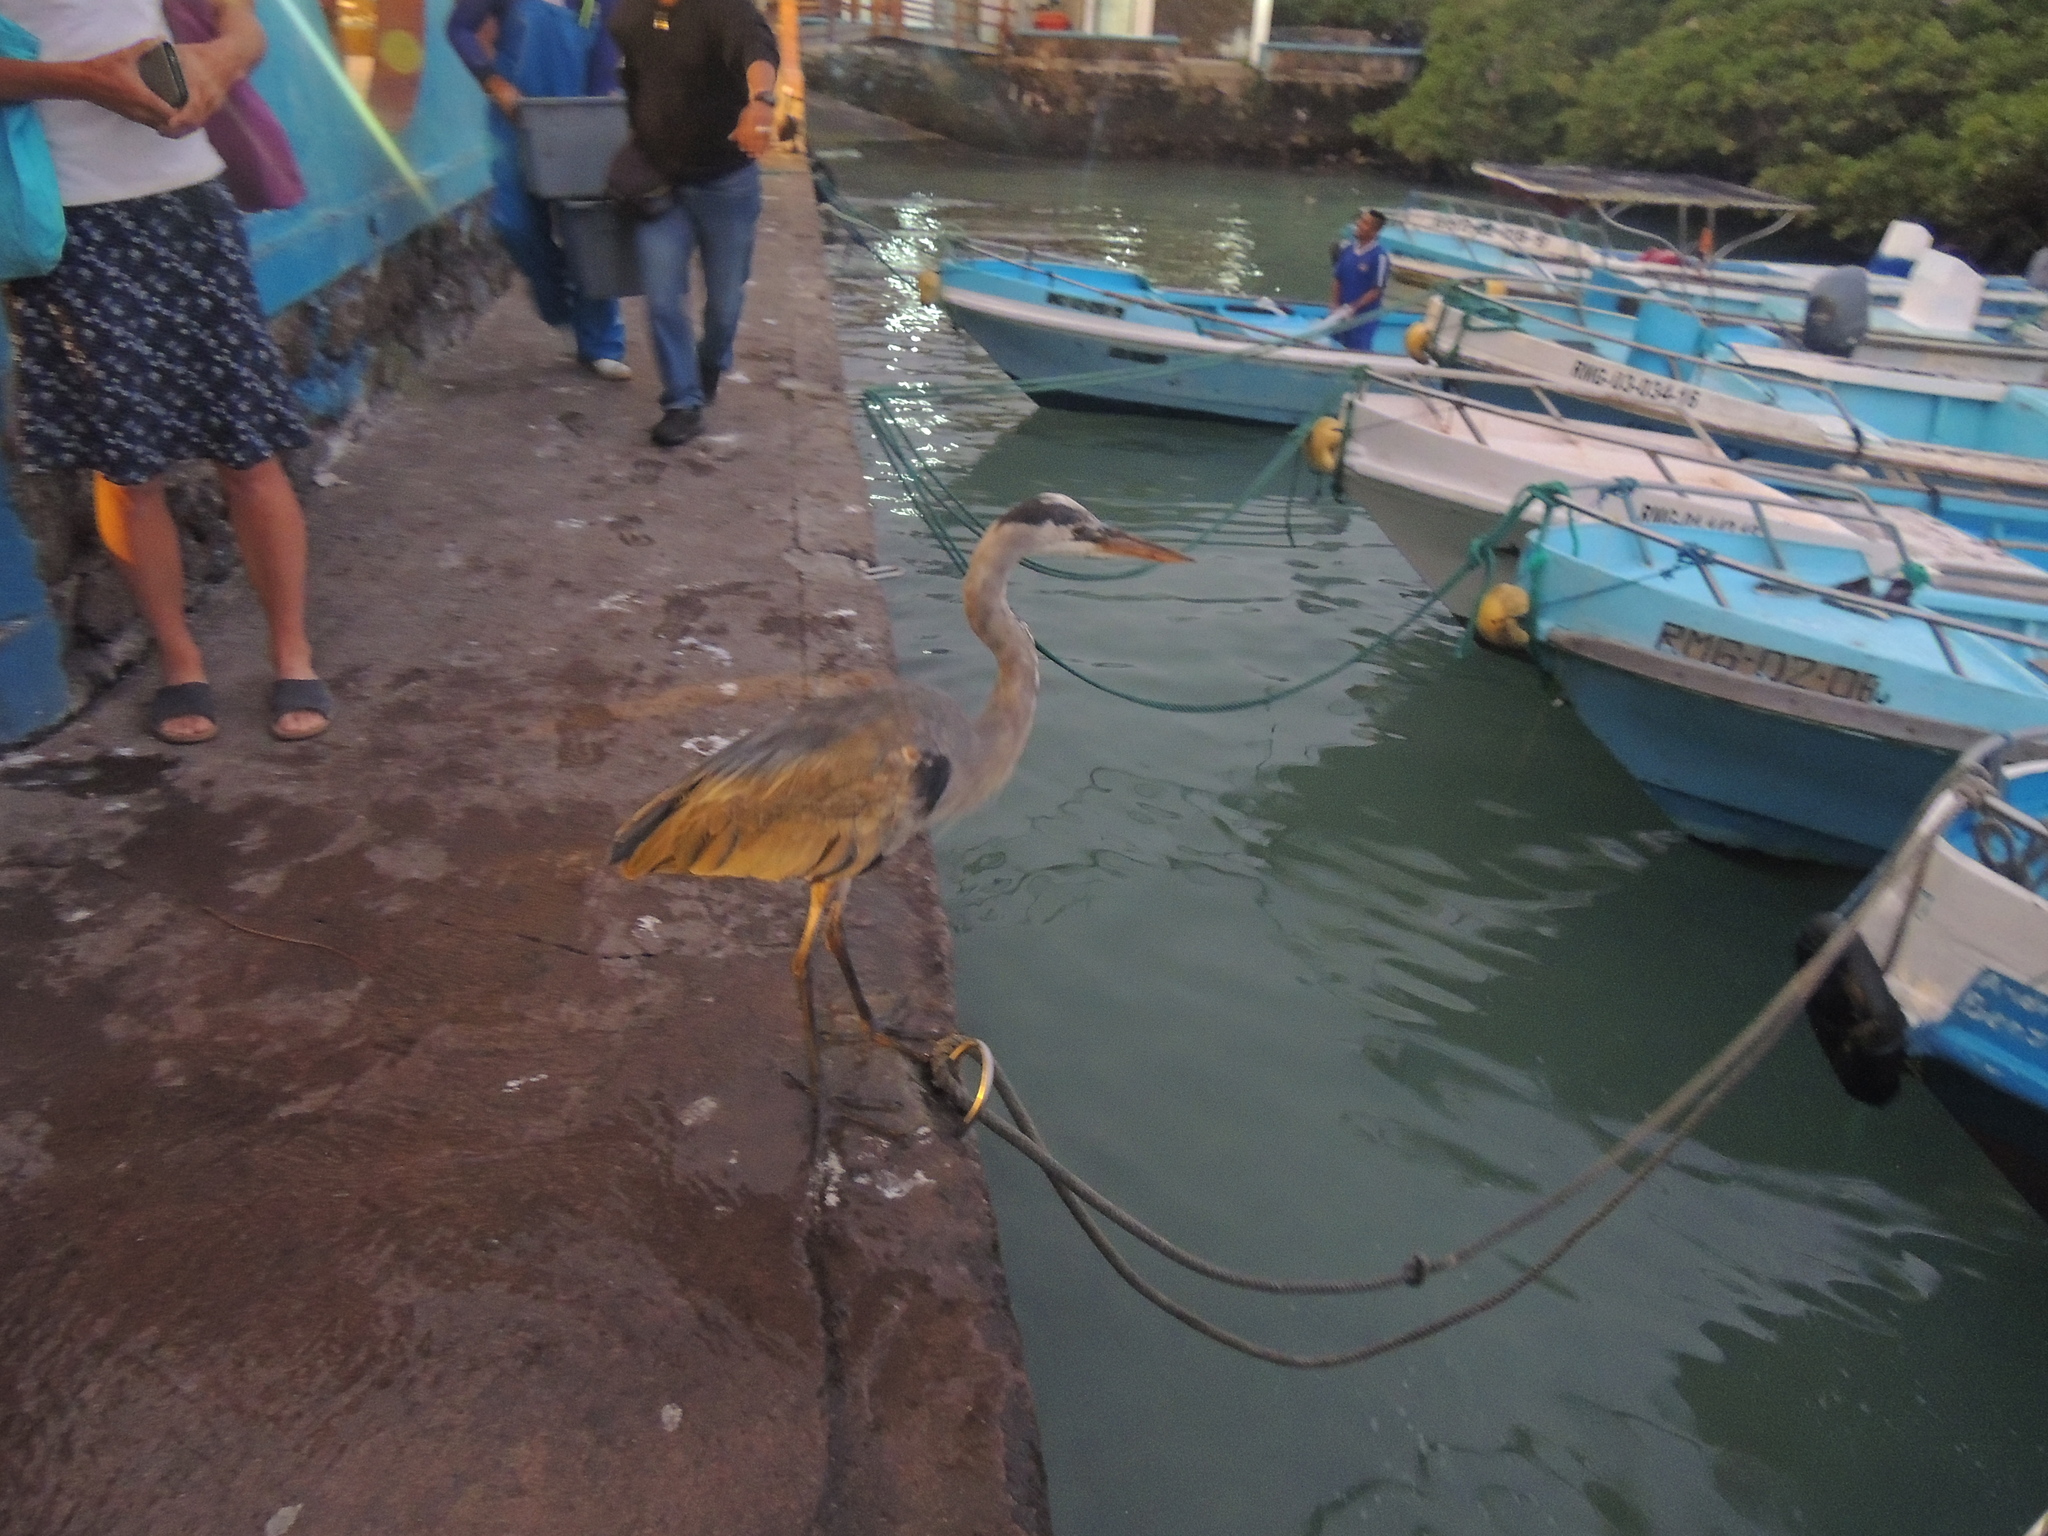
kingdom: Animalia
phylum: Chordata
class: Aves
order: Pelecaniformes
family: Ardeidae
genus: Ardea
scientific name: Ardea herodias
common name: Great blue heron
